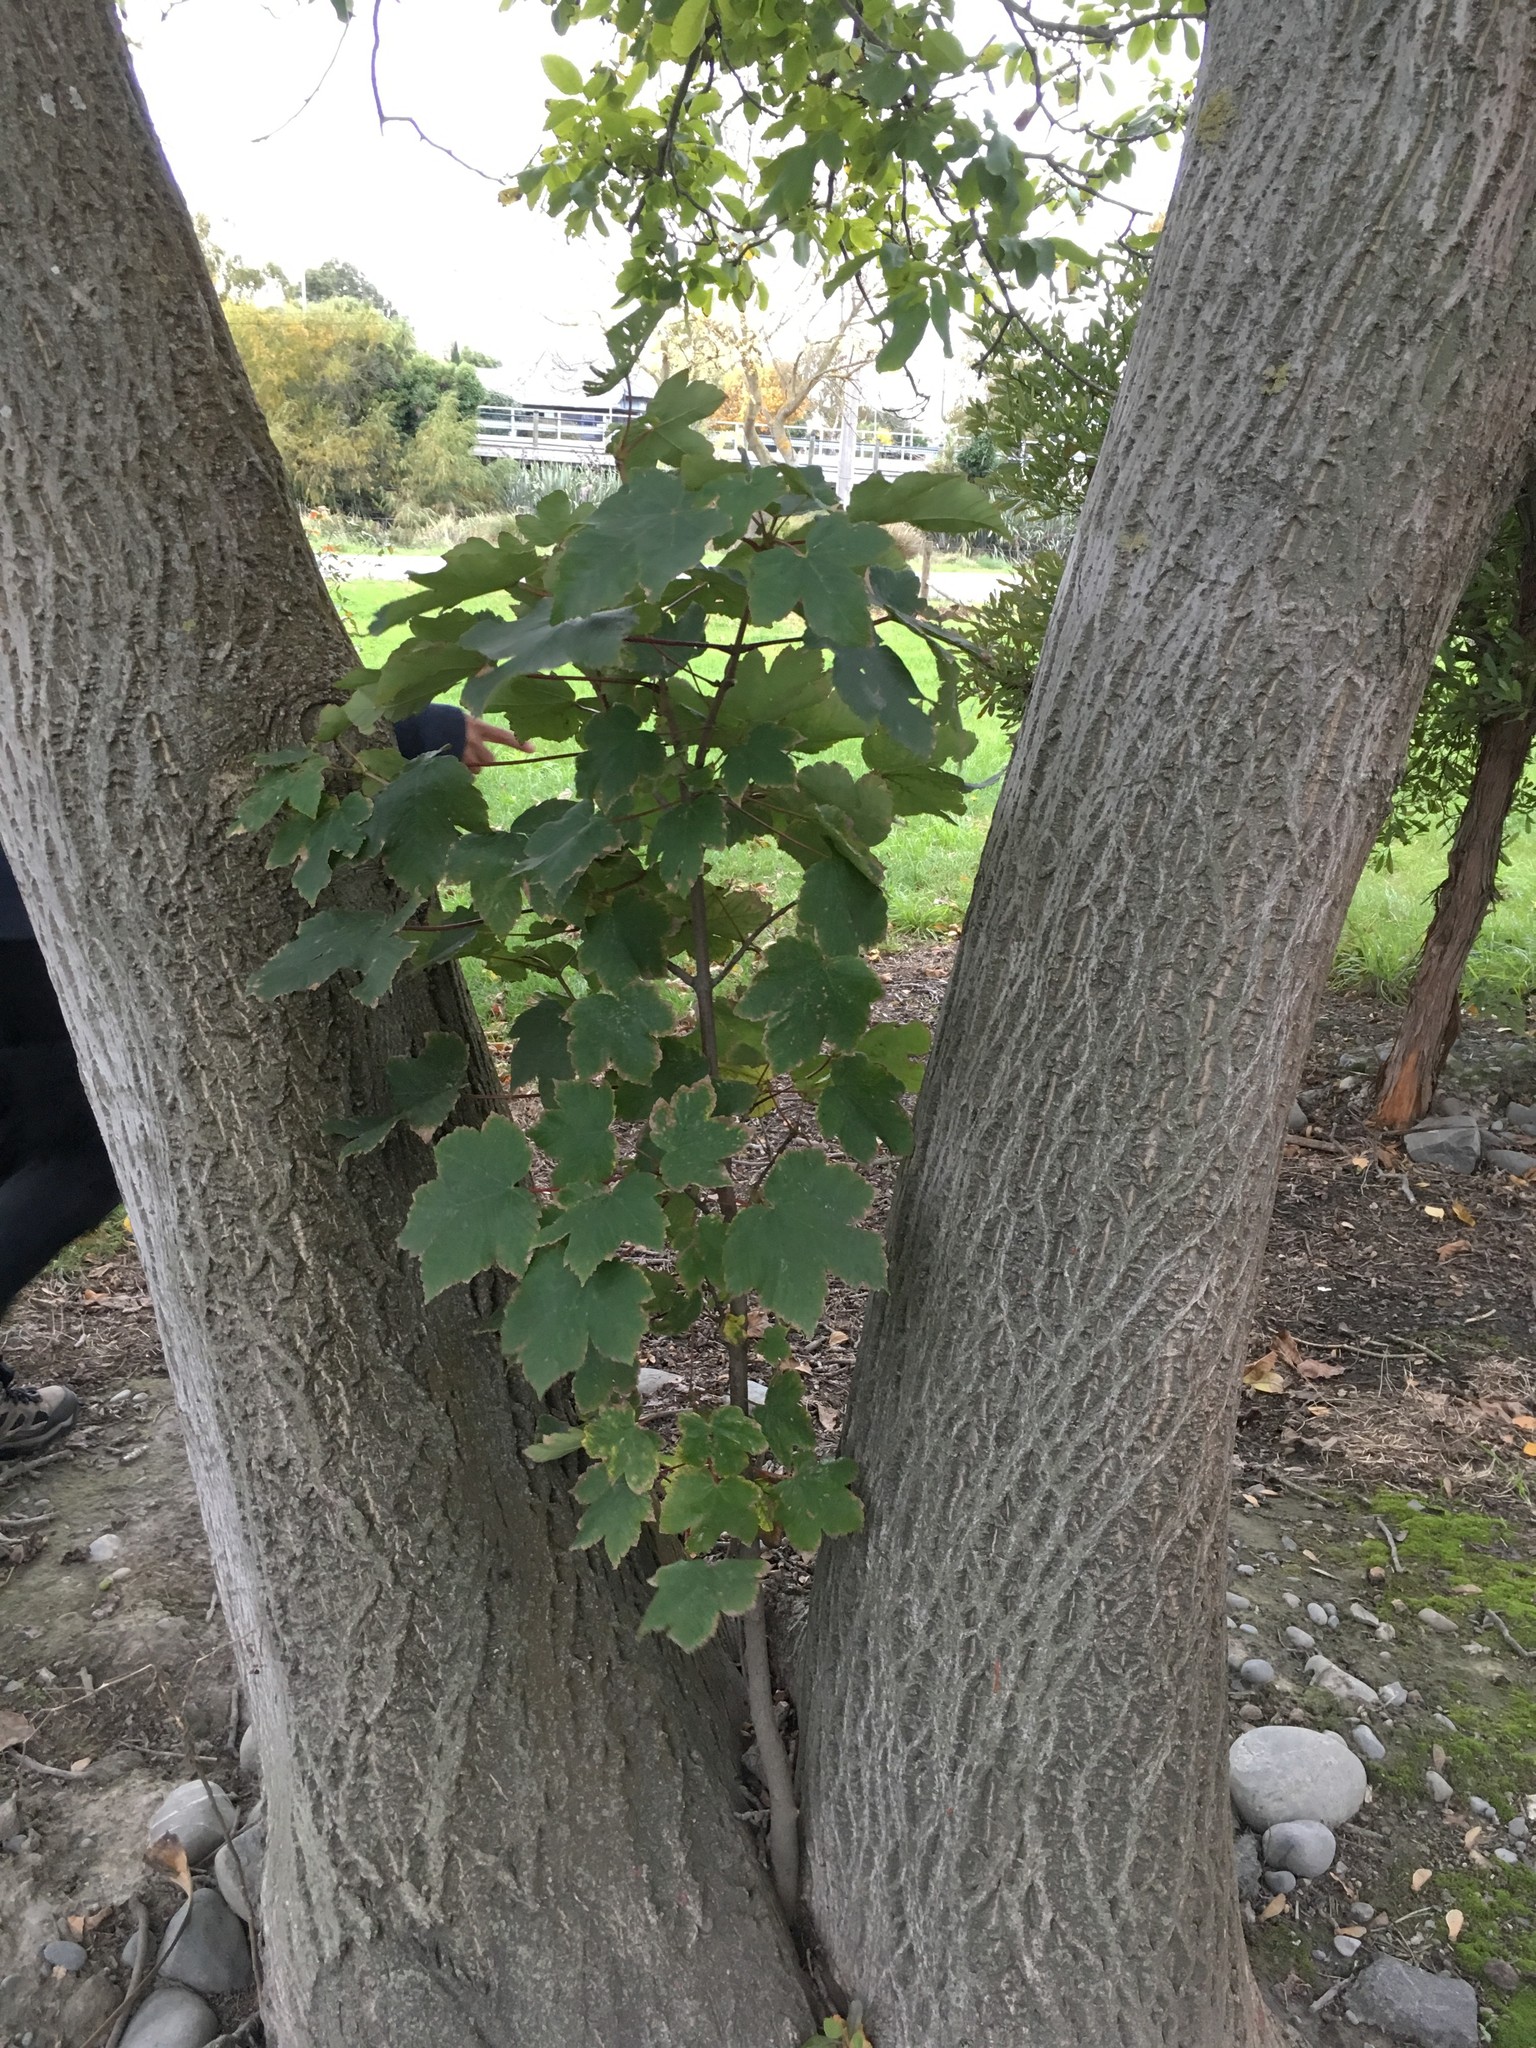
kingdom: Plantae
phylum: Tracheophyta
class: Magnoliopsida
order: Sapindales
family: Sapindaceae
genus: Acer
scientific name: Acer pseudoplatanus
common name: Sycamore
